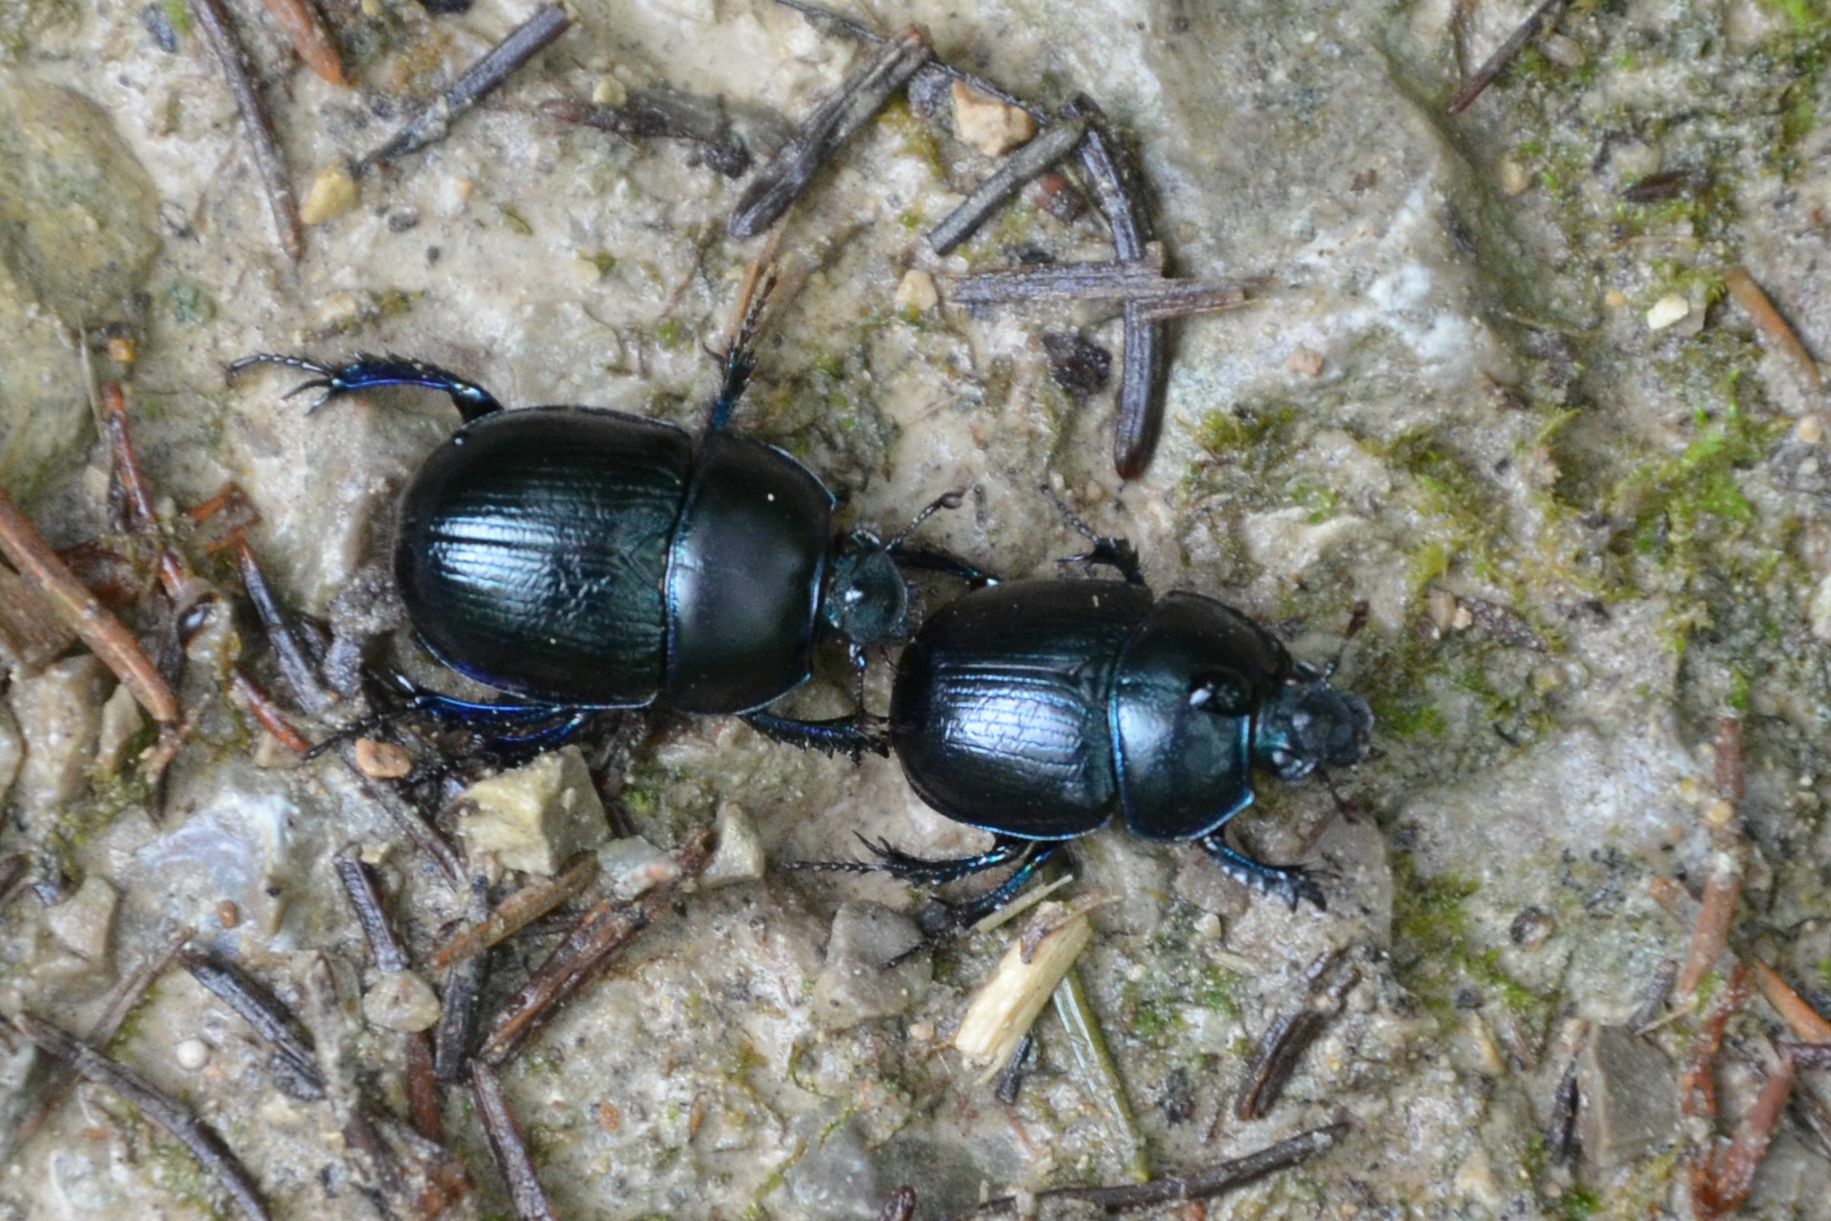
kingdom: Animalia
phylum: Arthropoda
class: Insecta
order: Coleoptera
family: Geotrupidae
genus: Anoplotrupes
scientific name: Anoplotrupes stercorosus
